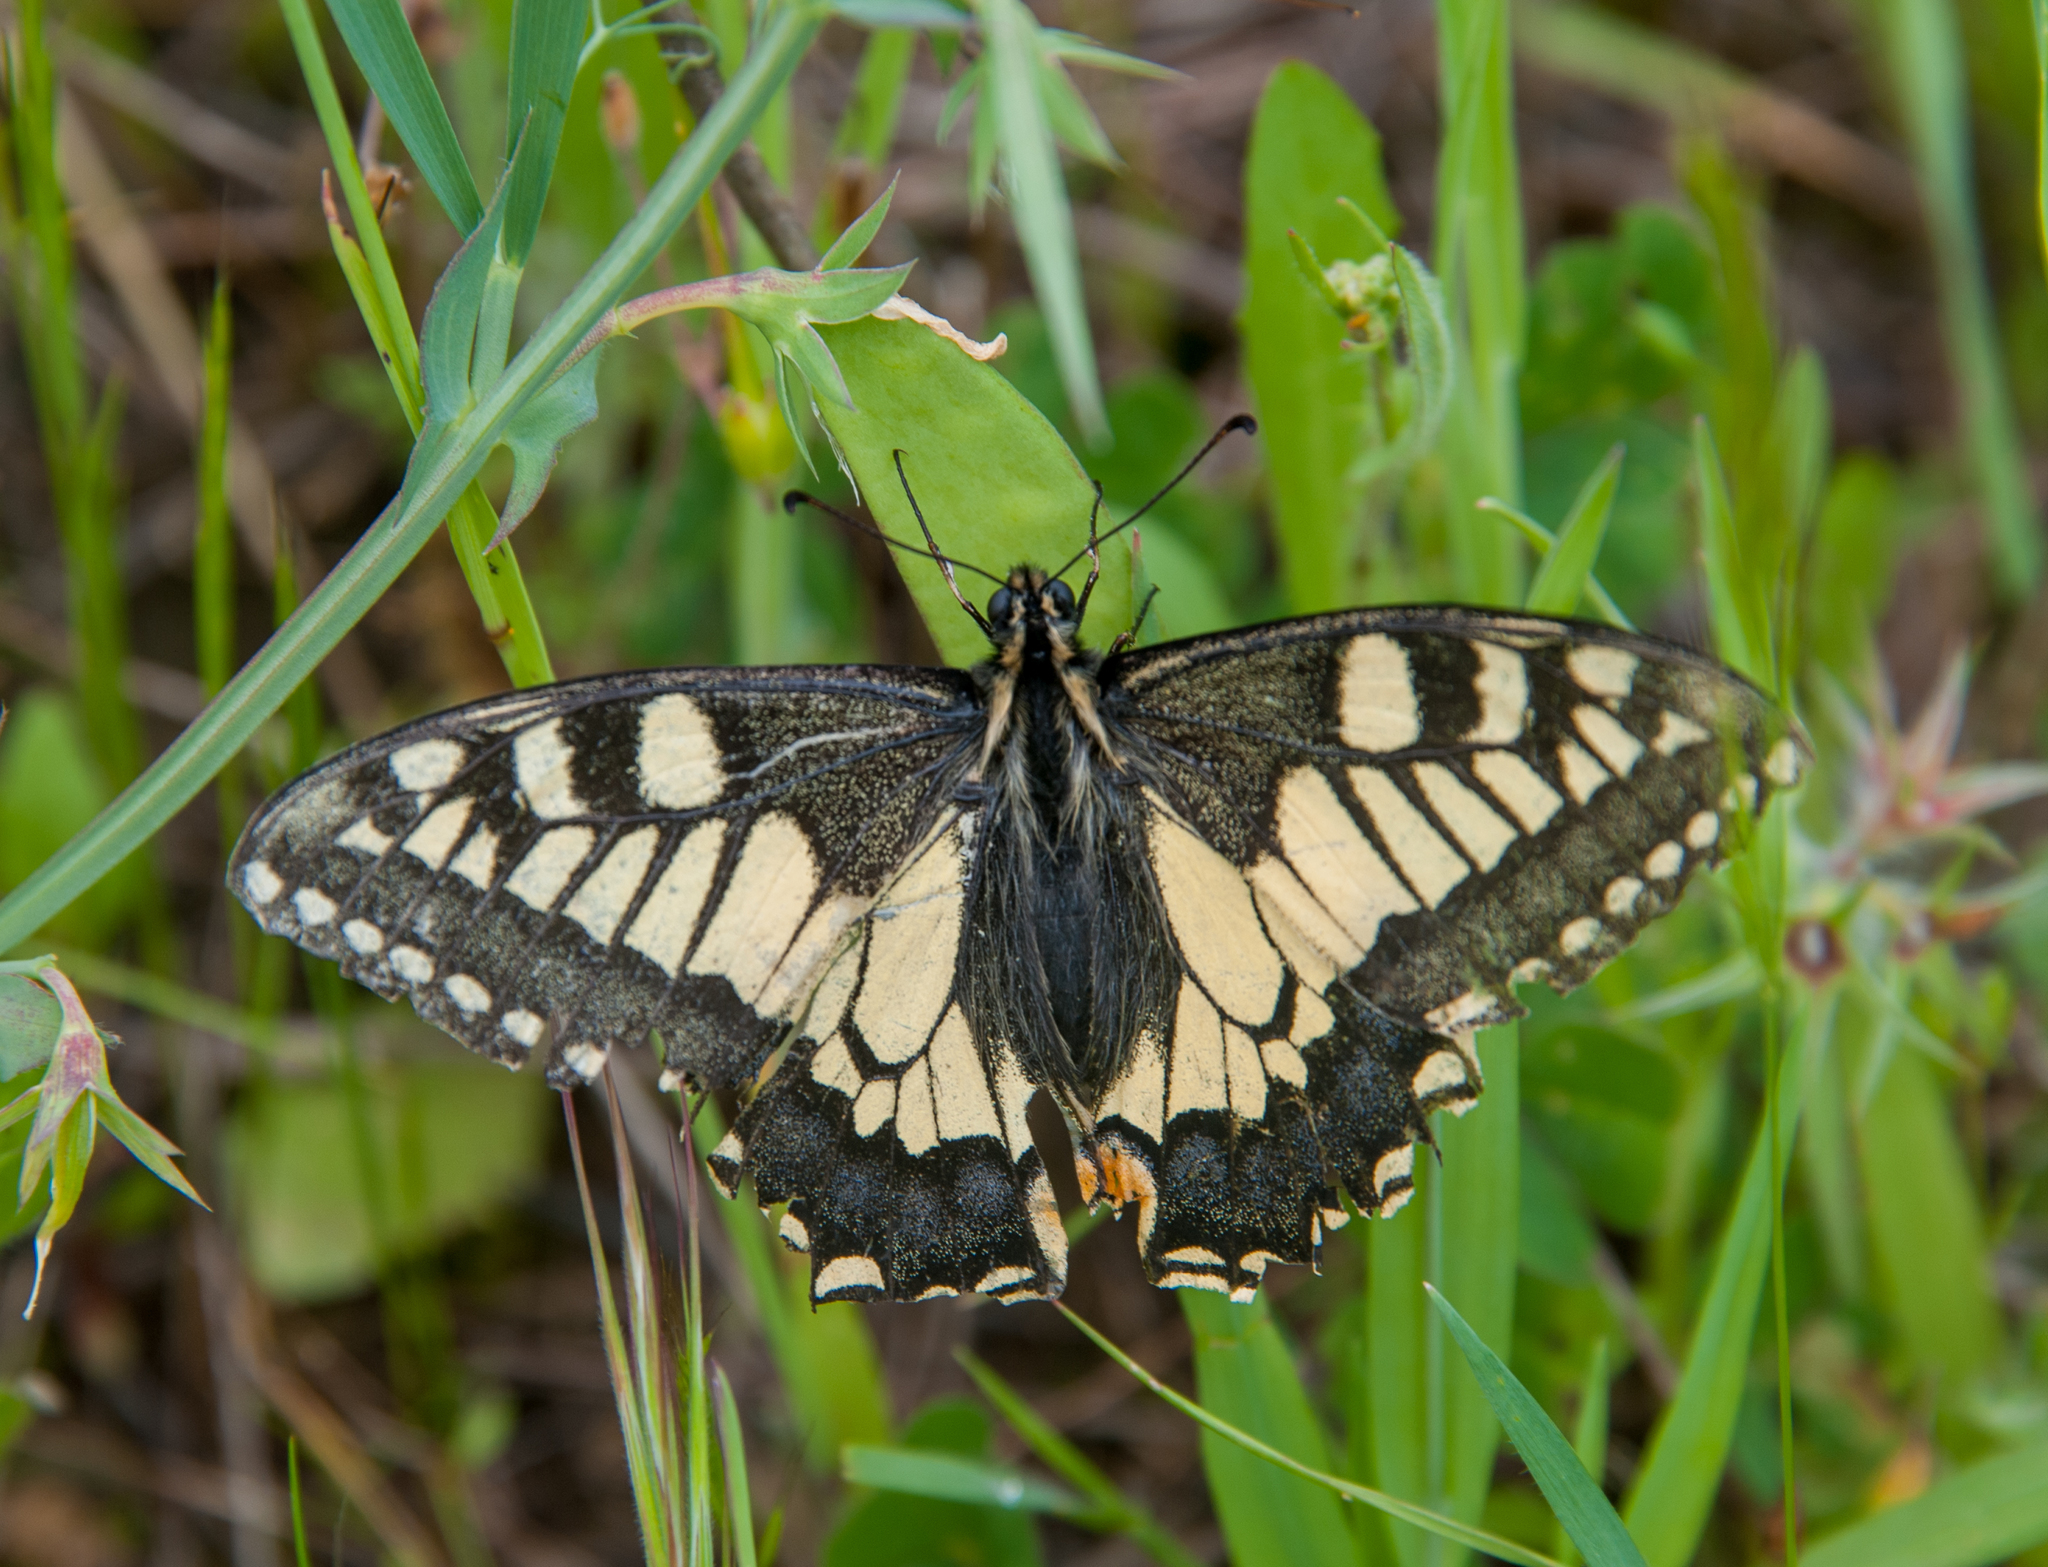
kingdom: Animalia
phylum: Arthropoda
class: Insecta
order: Lepidoptera
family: Papilionidae
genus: Papilio
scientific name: Papilio machaon
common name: Swallowtail
